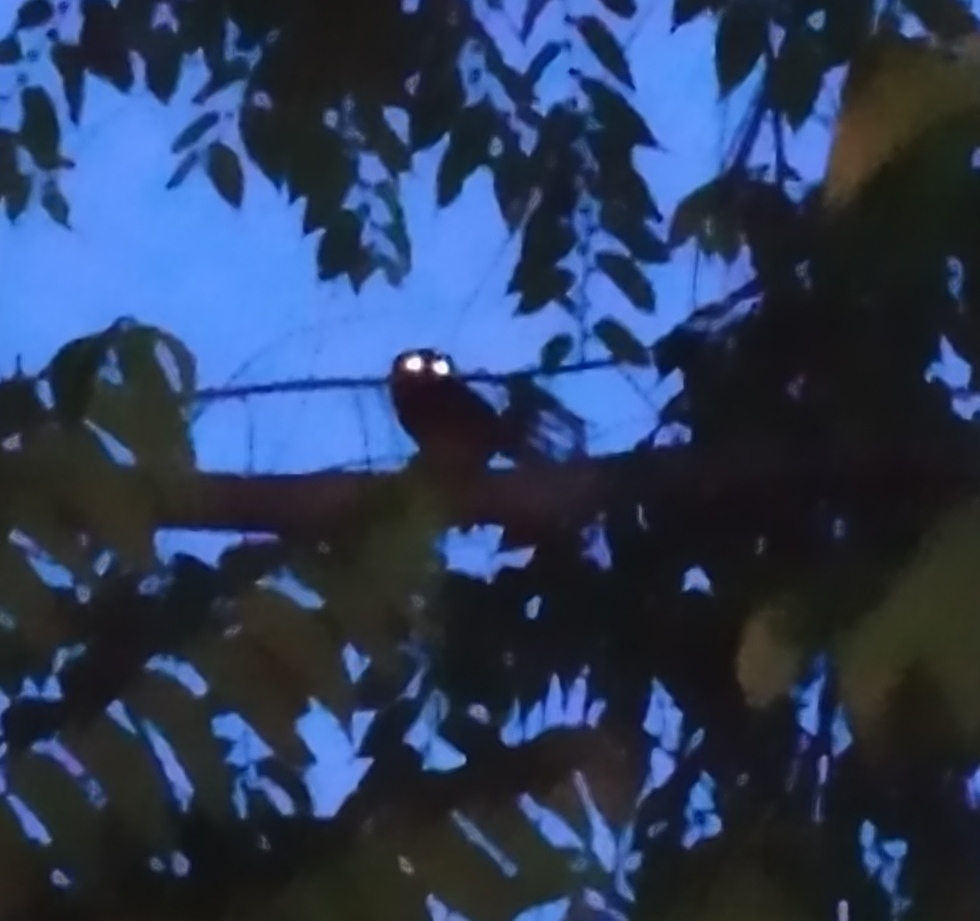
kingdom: Animalia
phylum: Chordata
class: Aves
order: Strigiformes
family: Strigidae
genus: Glaucidium
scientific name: Glaucidium radiatum
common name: Jungle owlet
